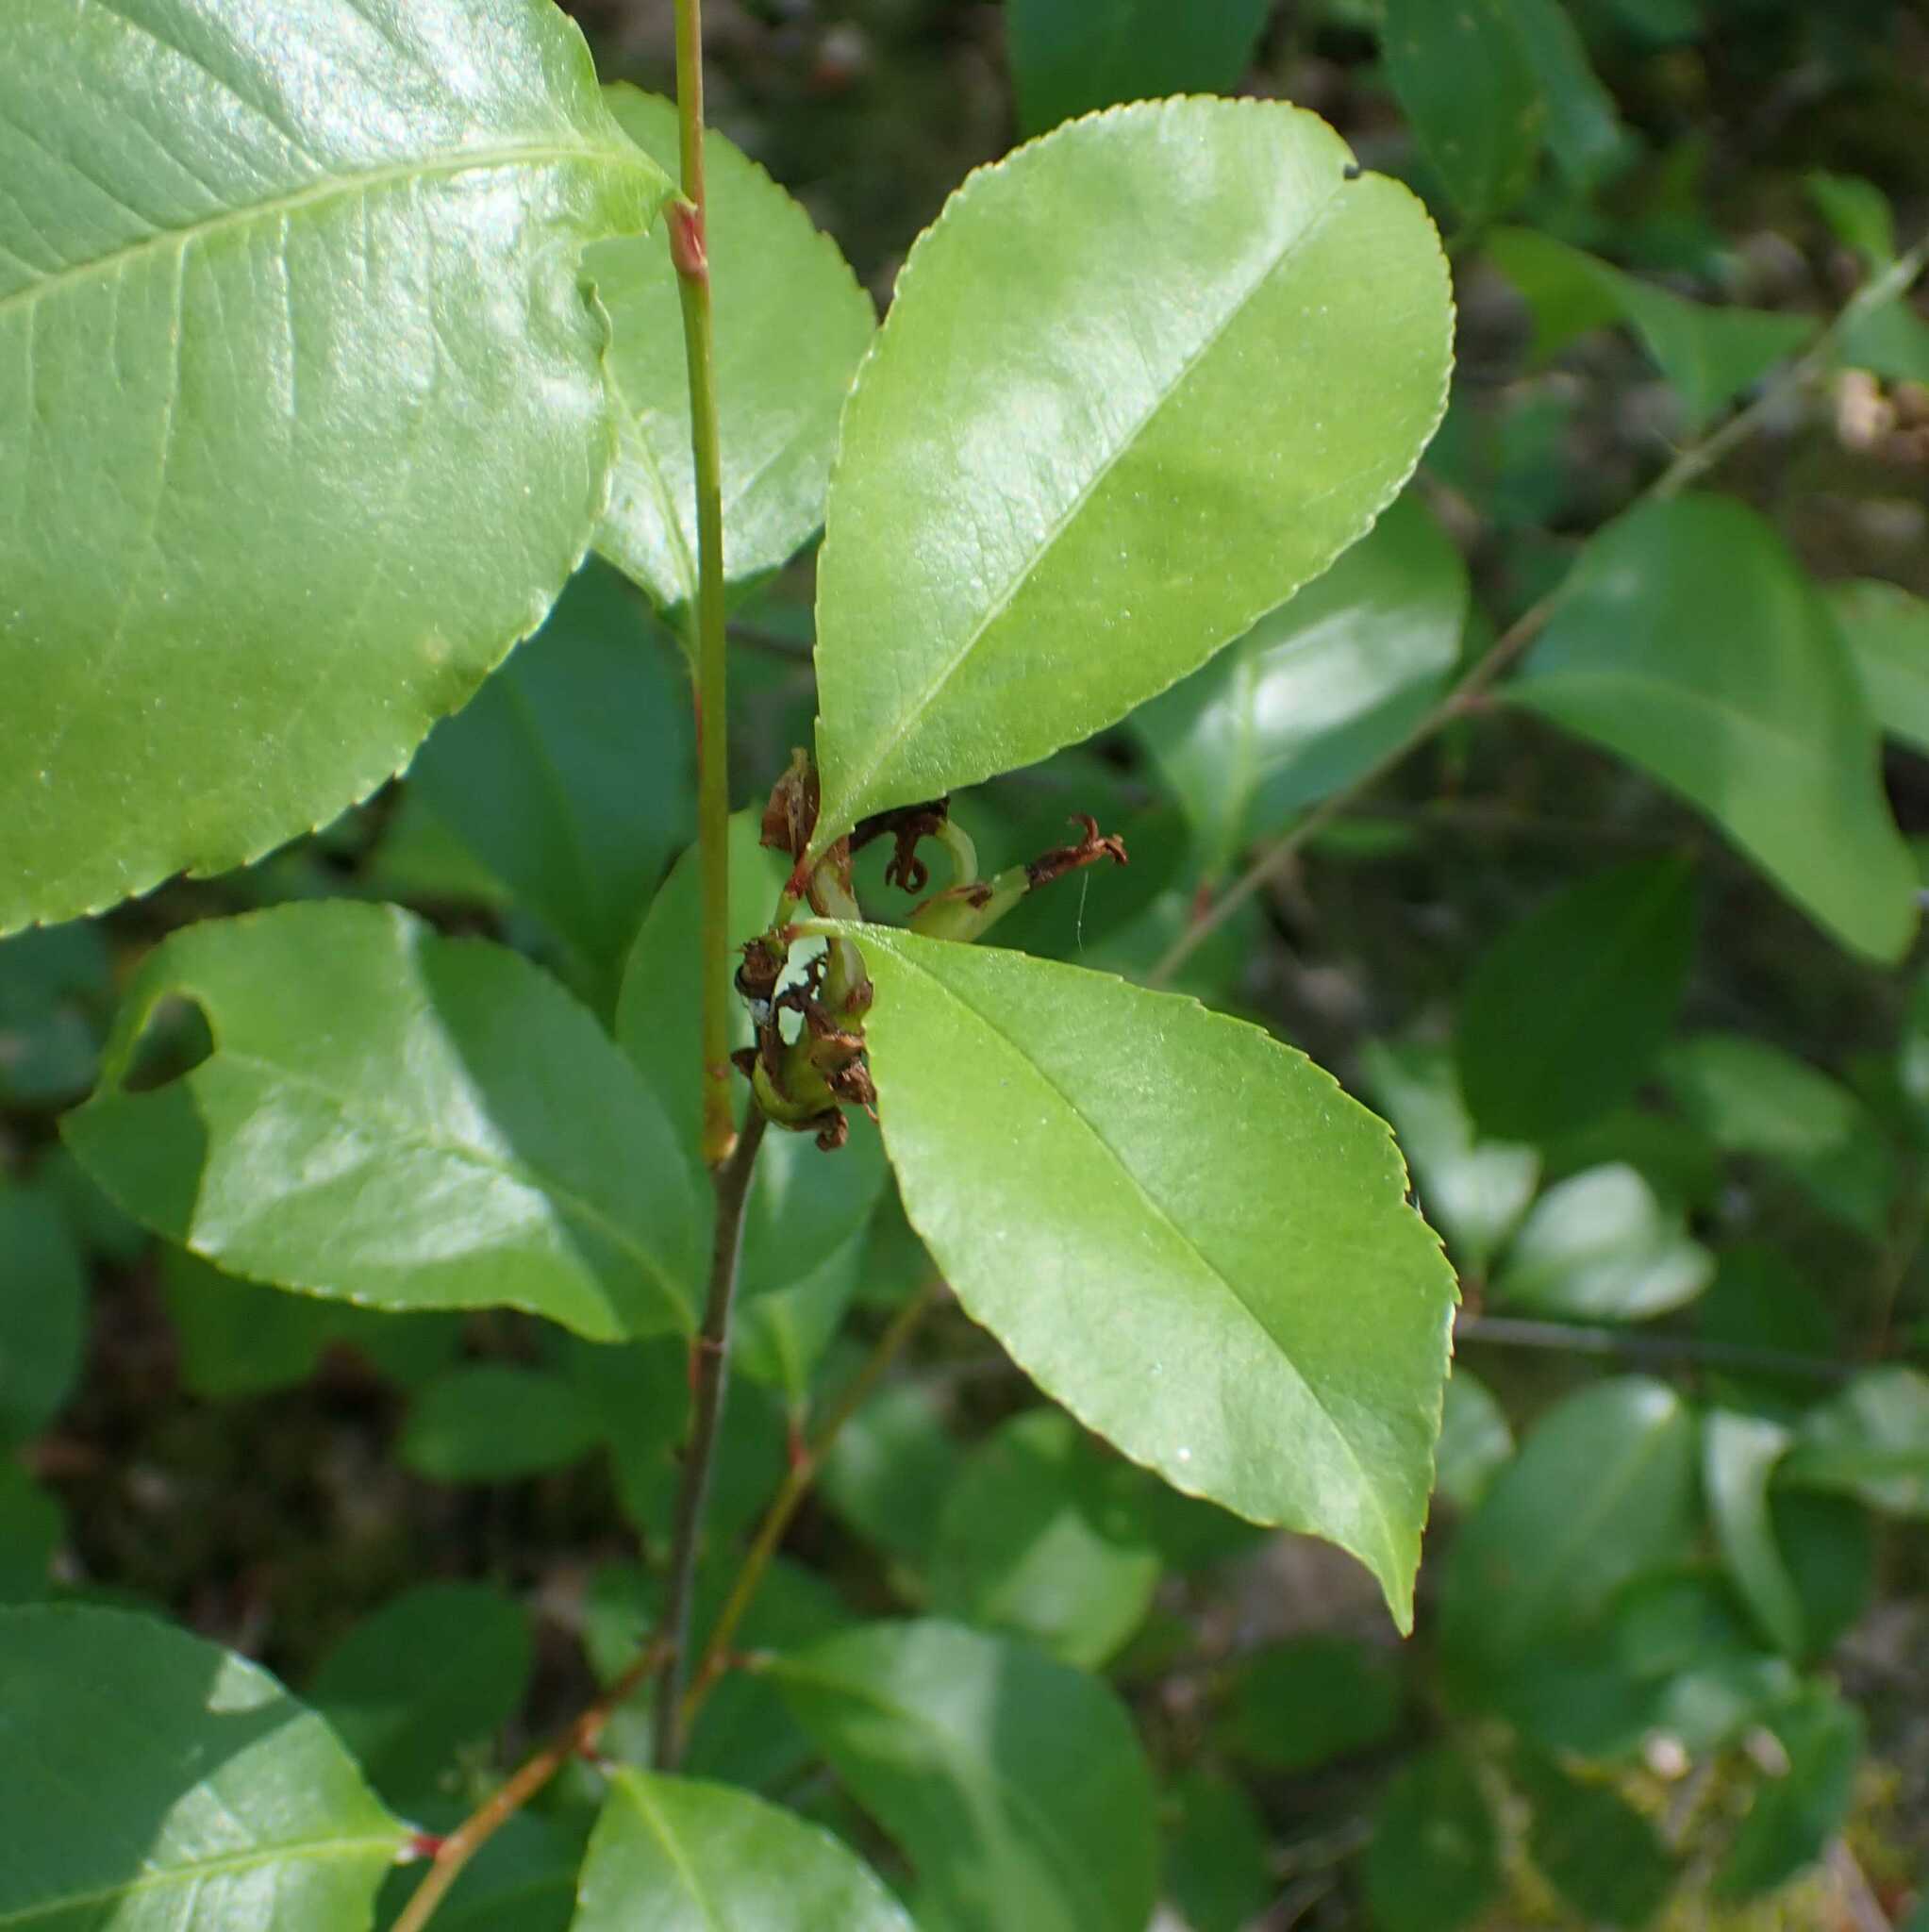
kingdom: Plantae
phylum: Tracheophyta
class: Magnoliopsida
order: Rosales
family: Rosaceae
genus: Prunus
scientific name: Prunus serotina
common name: Black cherry
